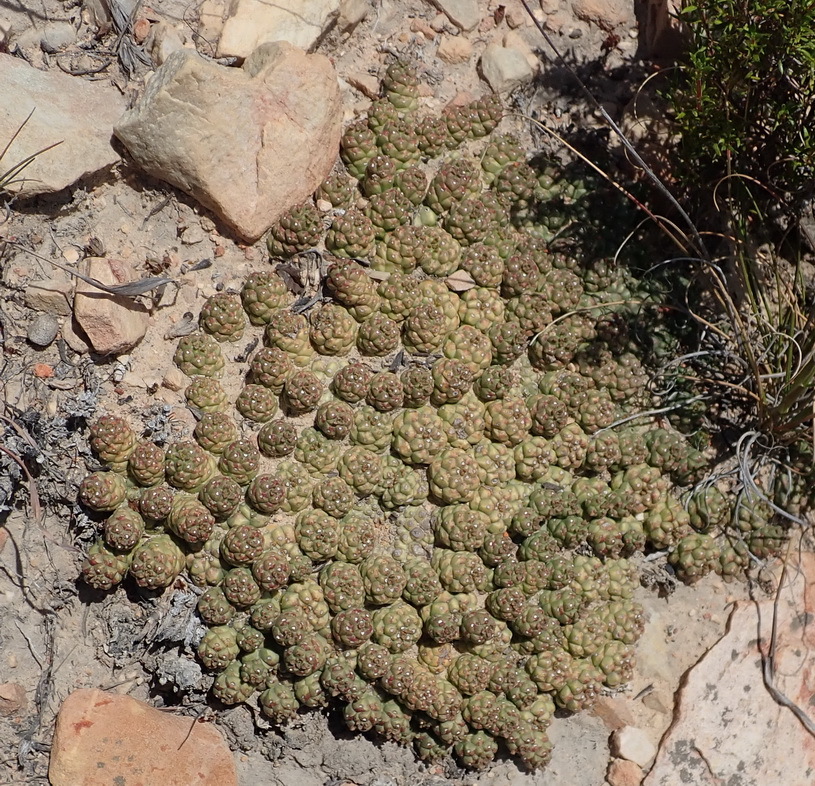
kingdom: Plantae
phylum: Tracheophyta
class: Magnoliopsida
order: Malpighiales
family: Euphorbiaceae
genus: Euphorbia
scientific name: Euphorbia willowmorensis
